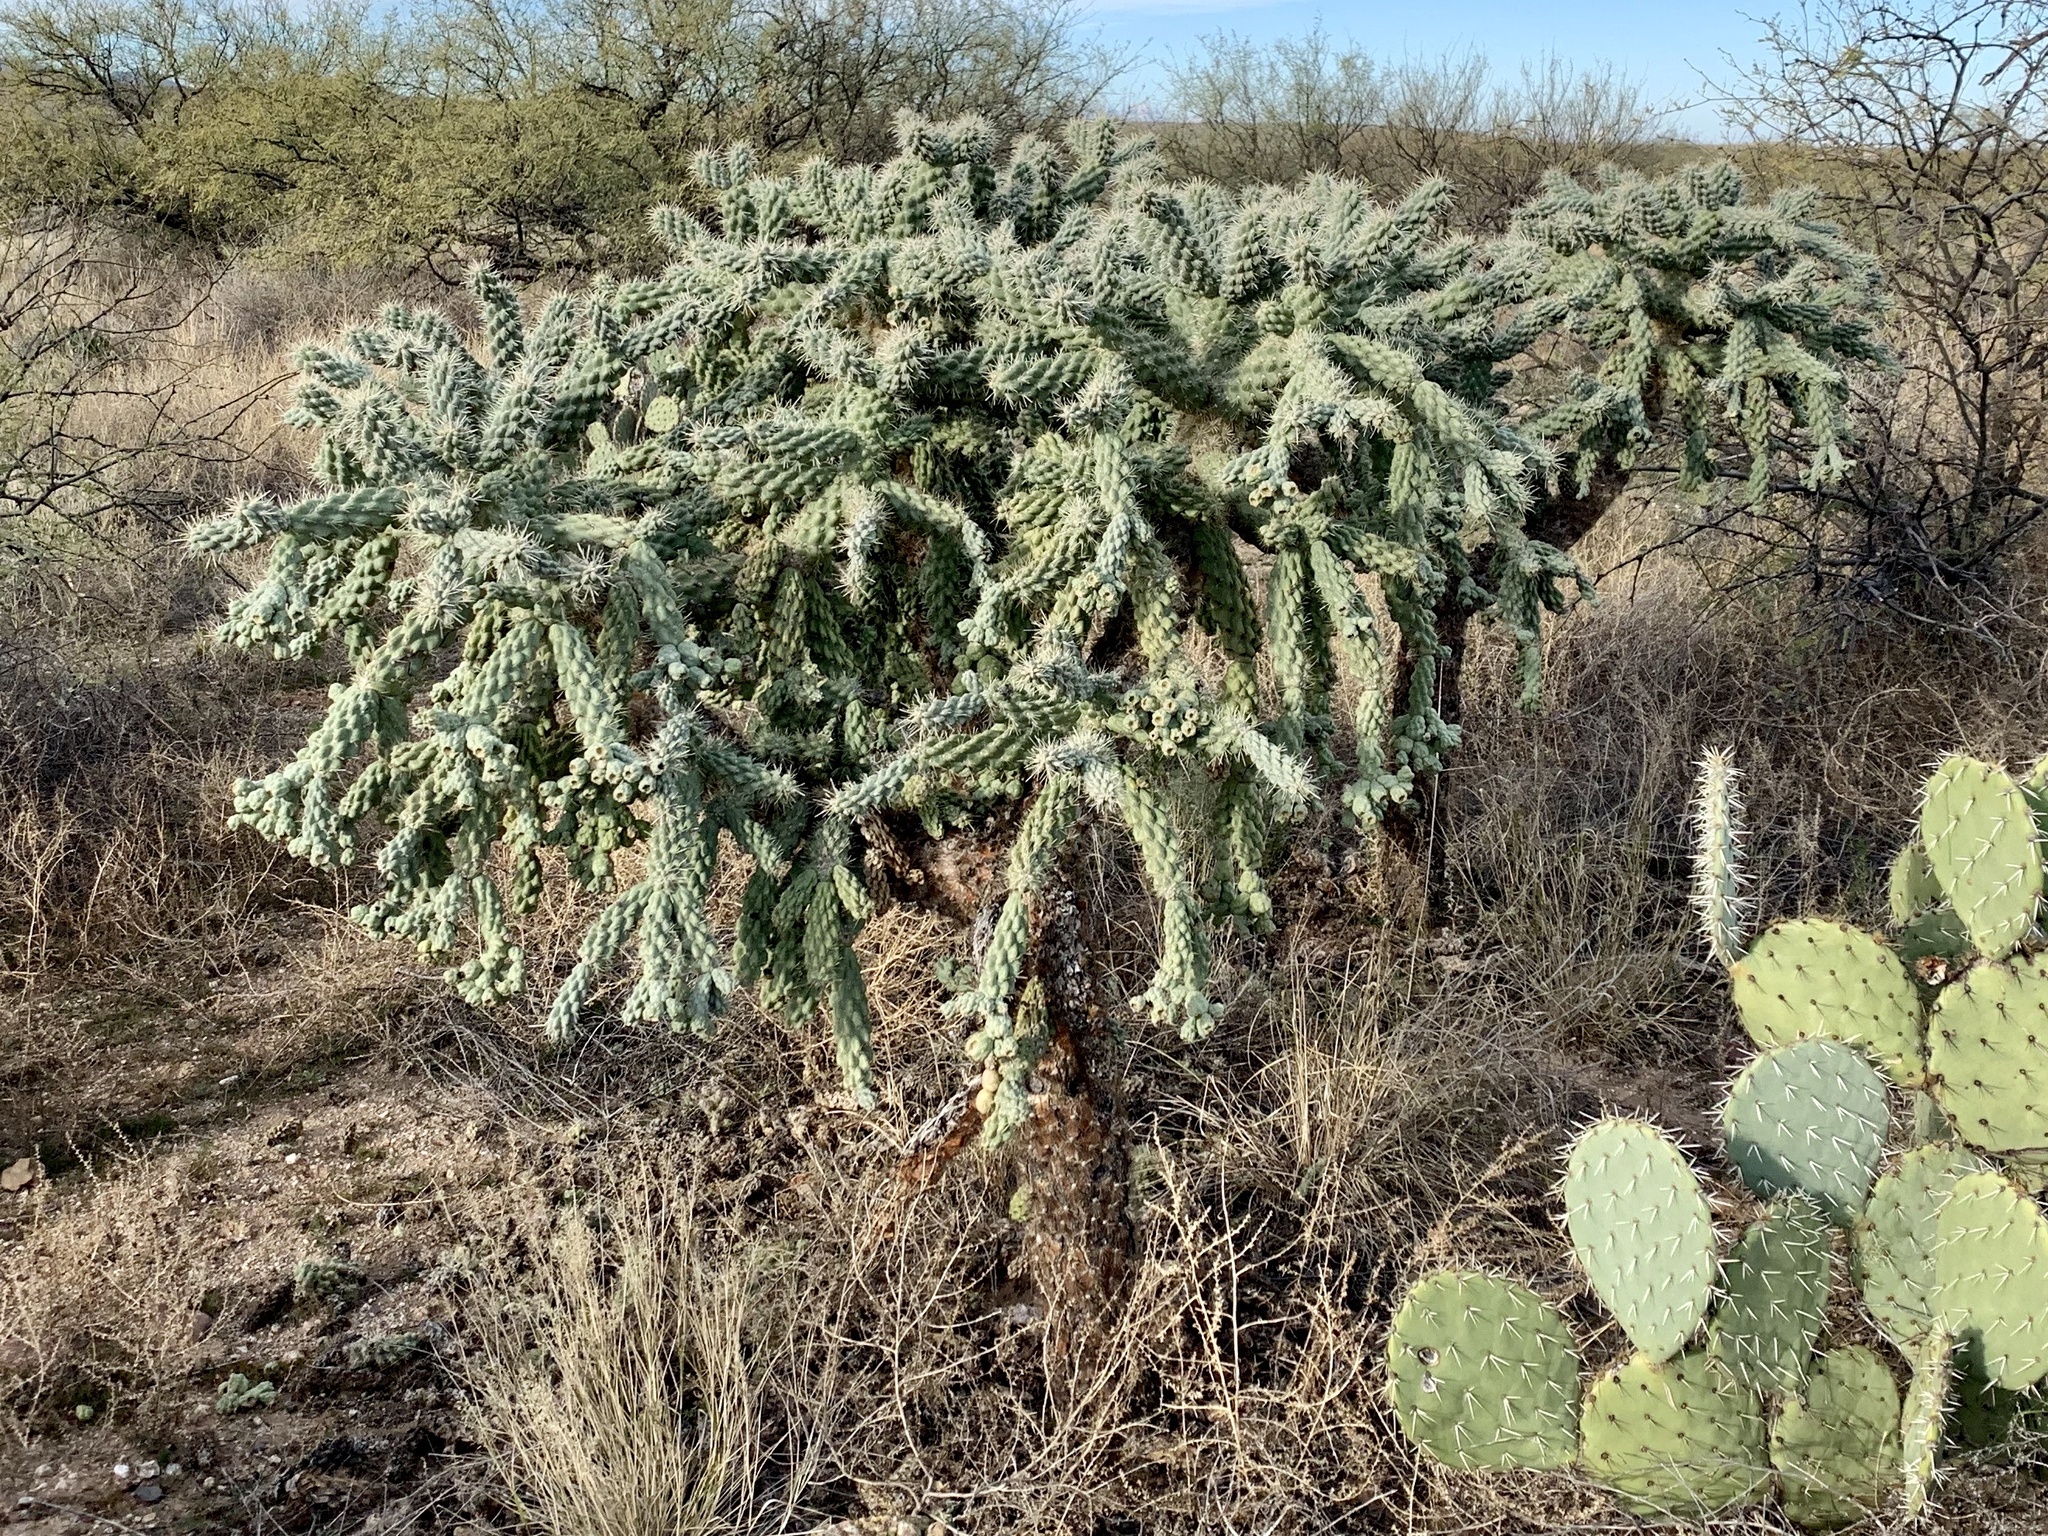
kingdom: Plantae
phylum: Tracheophyta
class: Magnoliopsida
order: Caryophyllales
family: Cactaceae
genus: Cylindropuntia
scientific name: Cylindropuntia fulgida
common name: Jumping cholla
